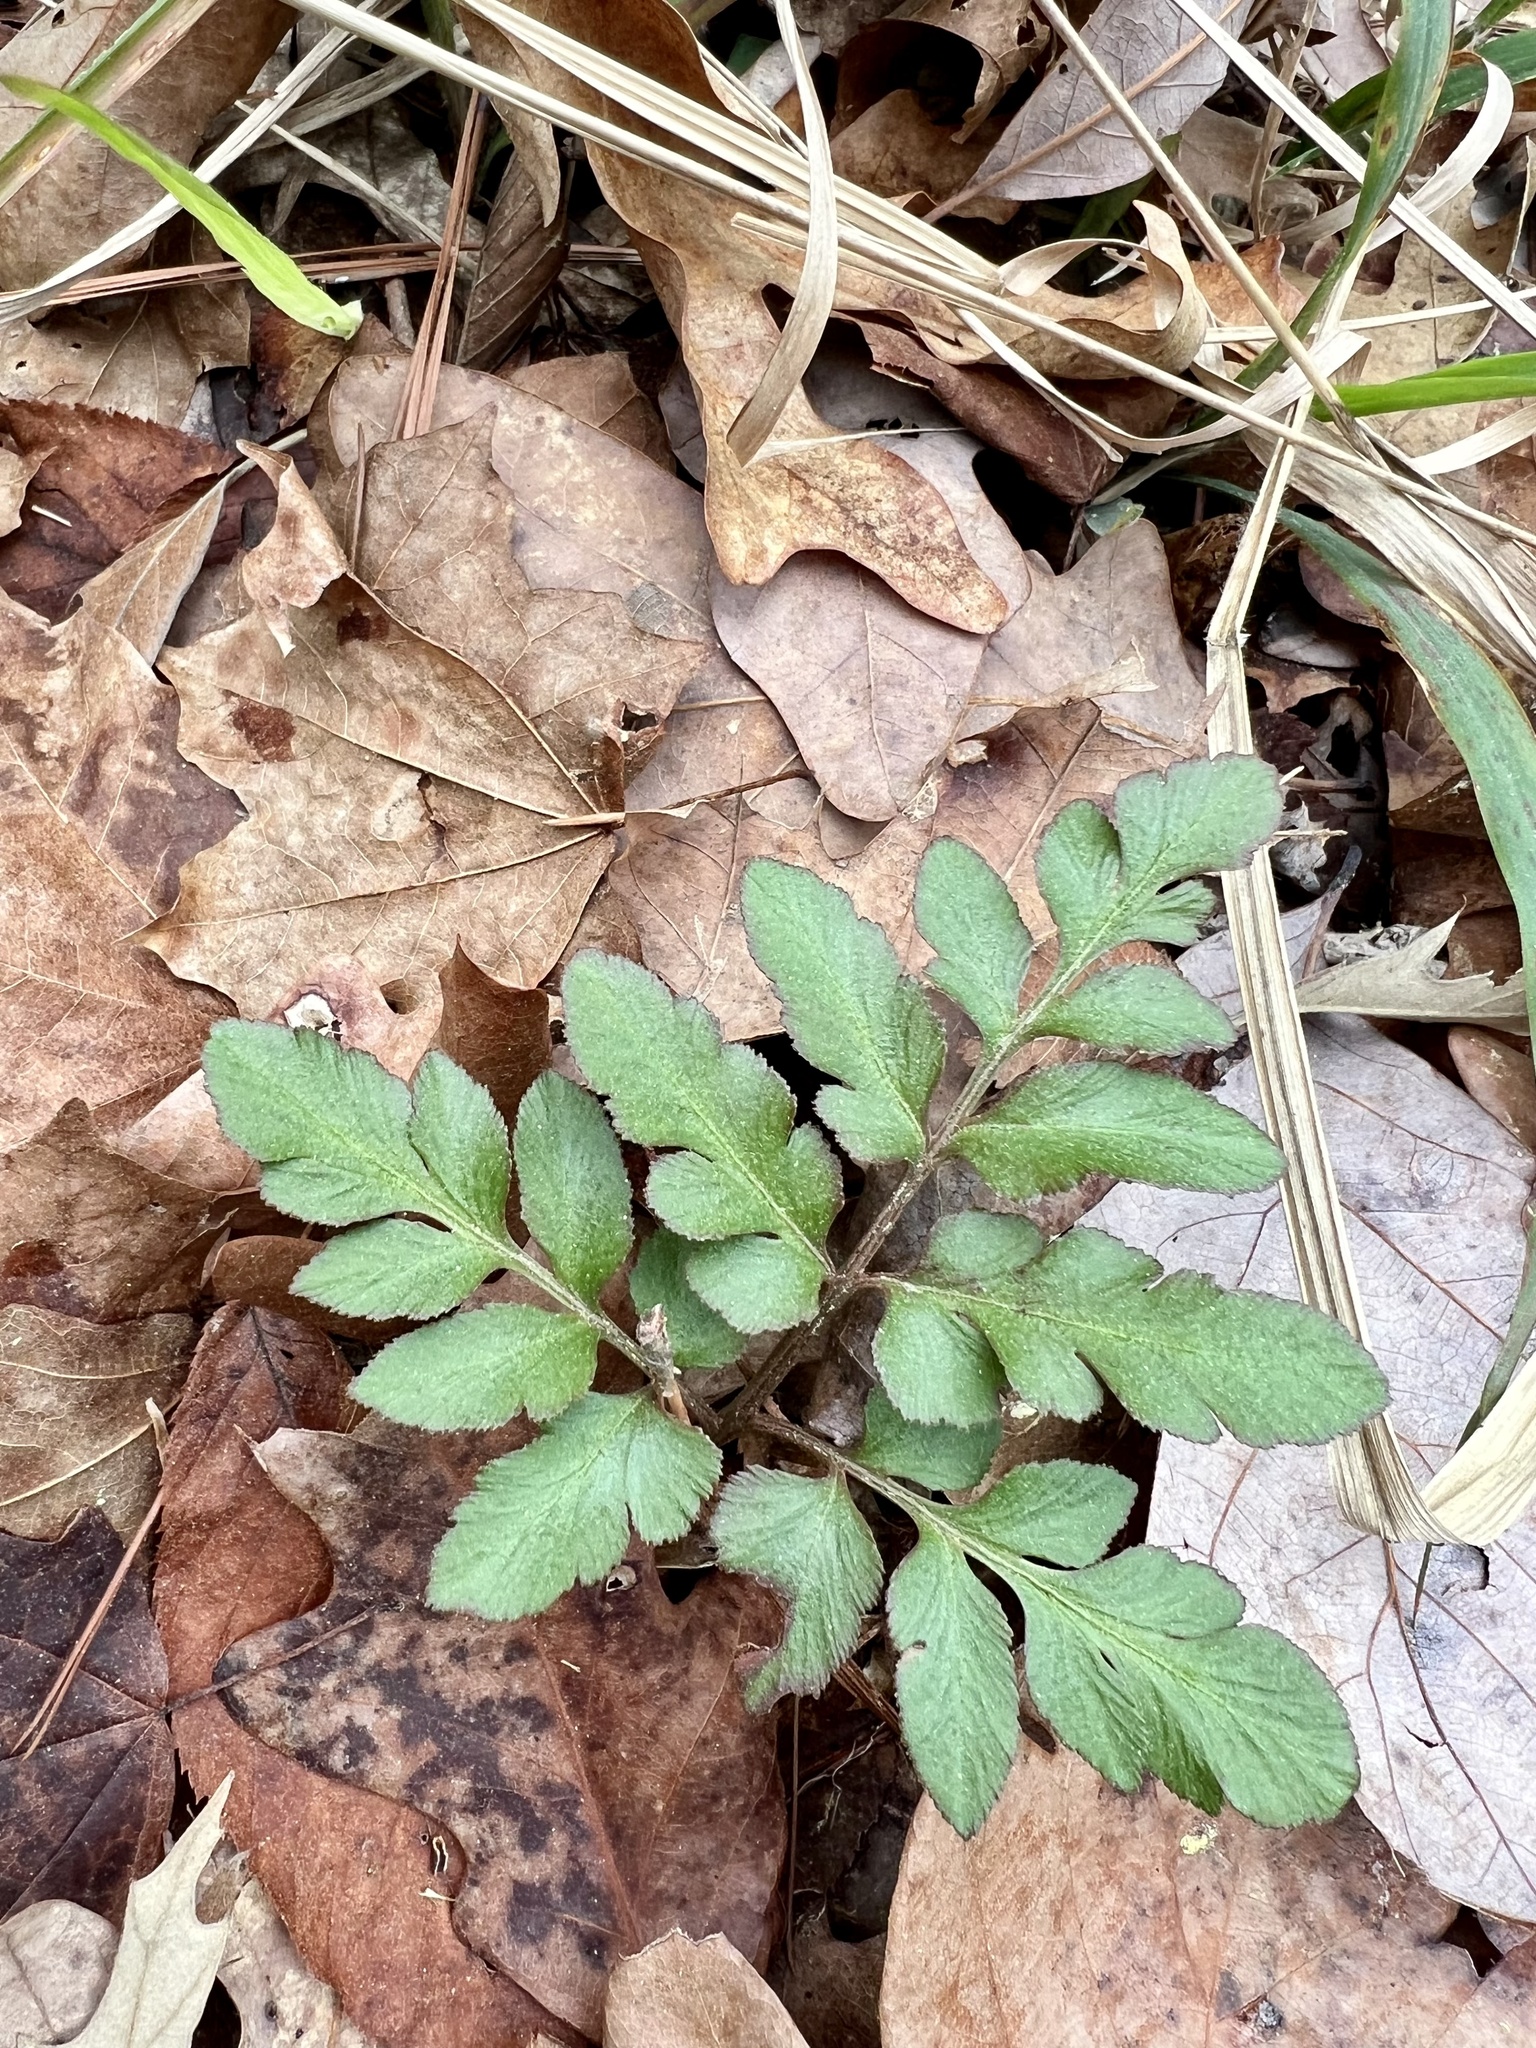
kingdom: Plantae
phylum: Tracheophyta
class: Polypodiopsida
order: Ophioglossales
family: Ophioglossaceae
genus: Sceptridium
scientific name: Sceptridium biternatum
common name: Sparse-lobed grapefern
